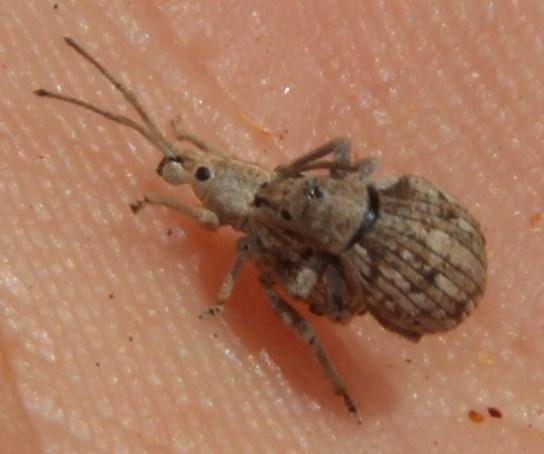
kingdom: Animalia
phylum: Arthropoda
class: Insecta
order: Coleoptera
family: Curculionidae
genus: Ellimenistes
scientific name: Ellimenistes laesicollis
